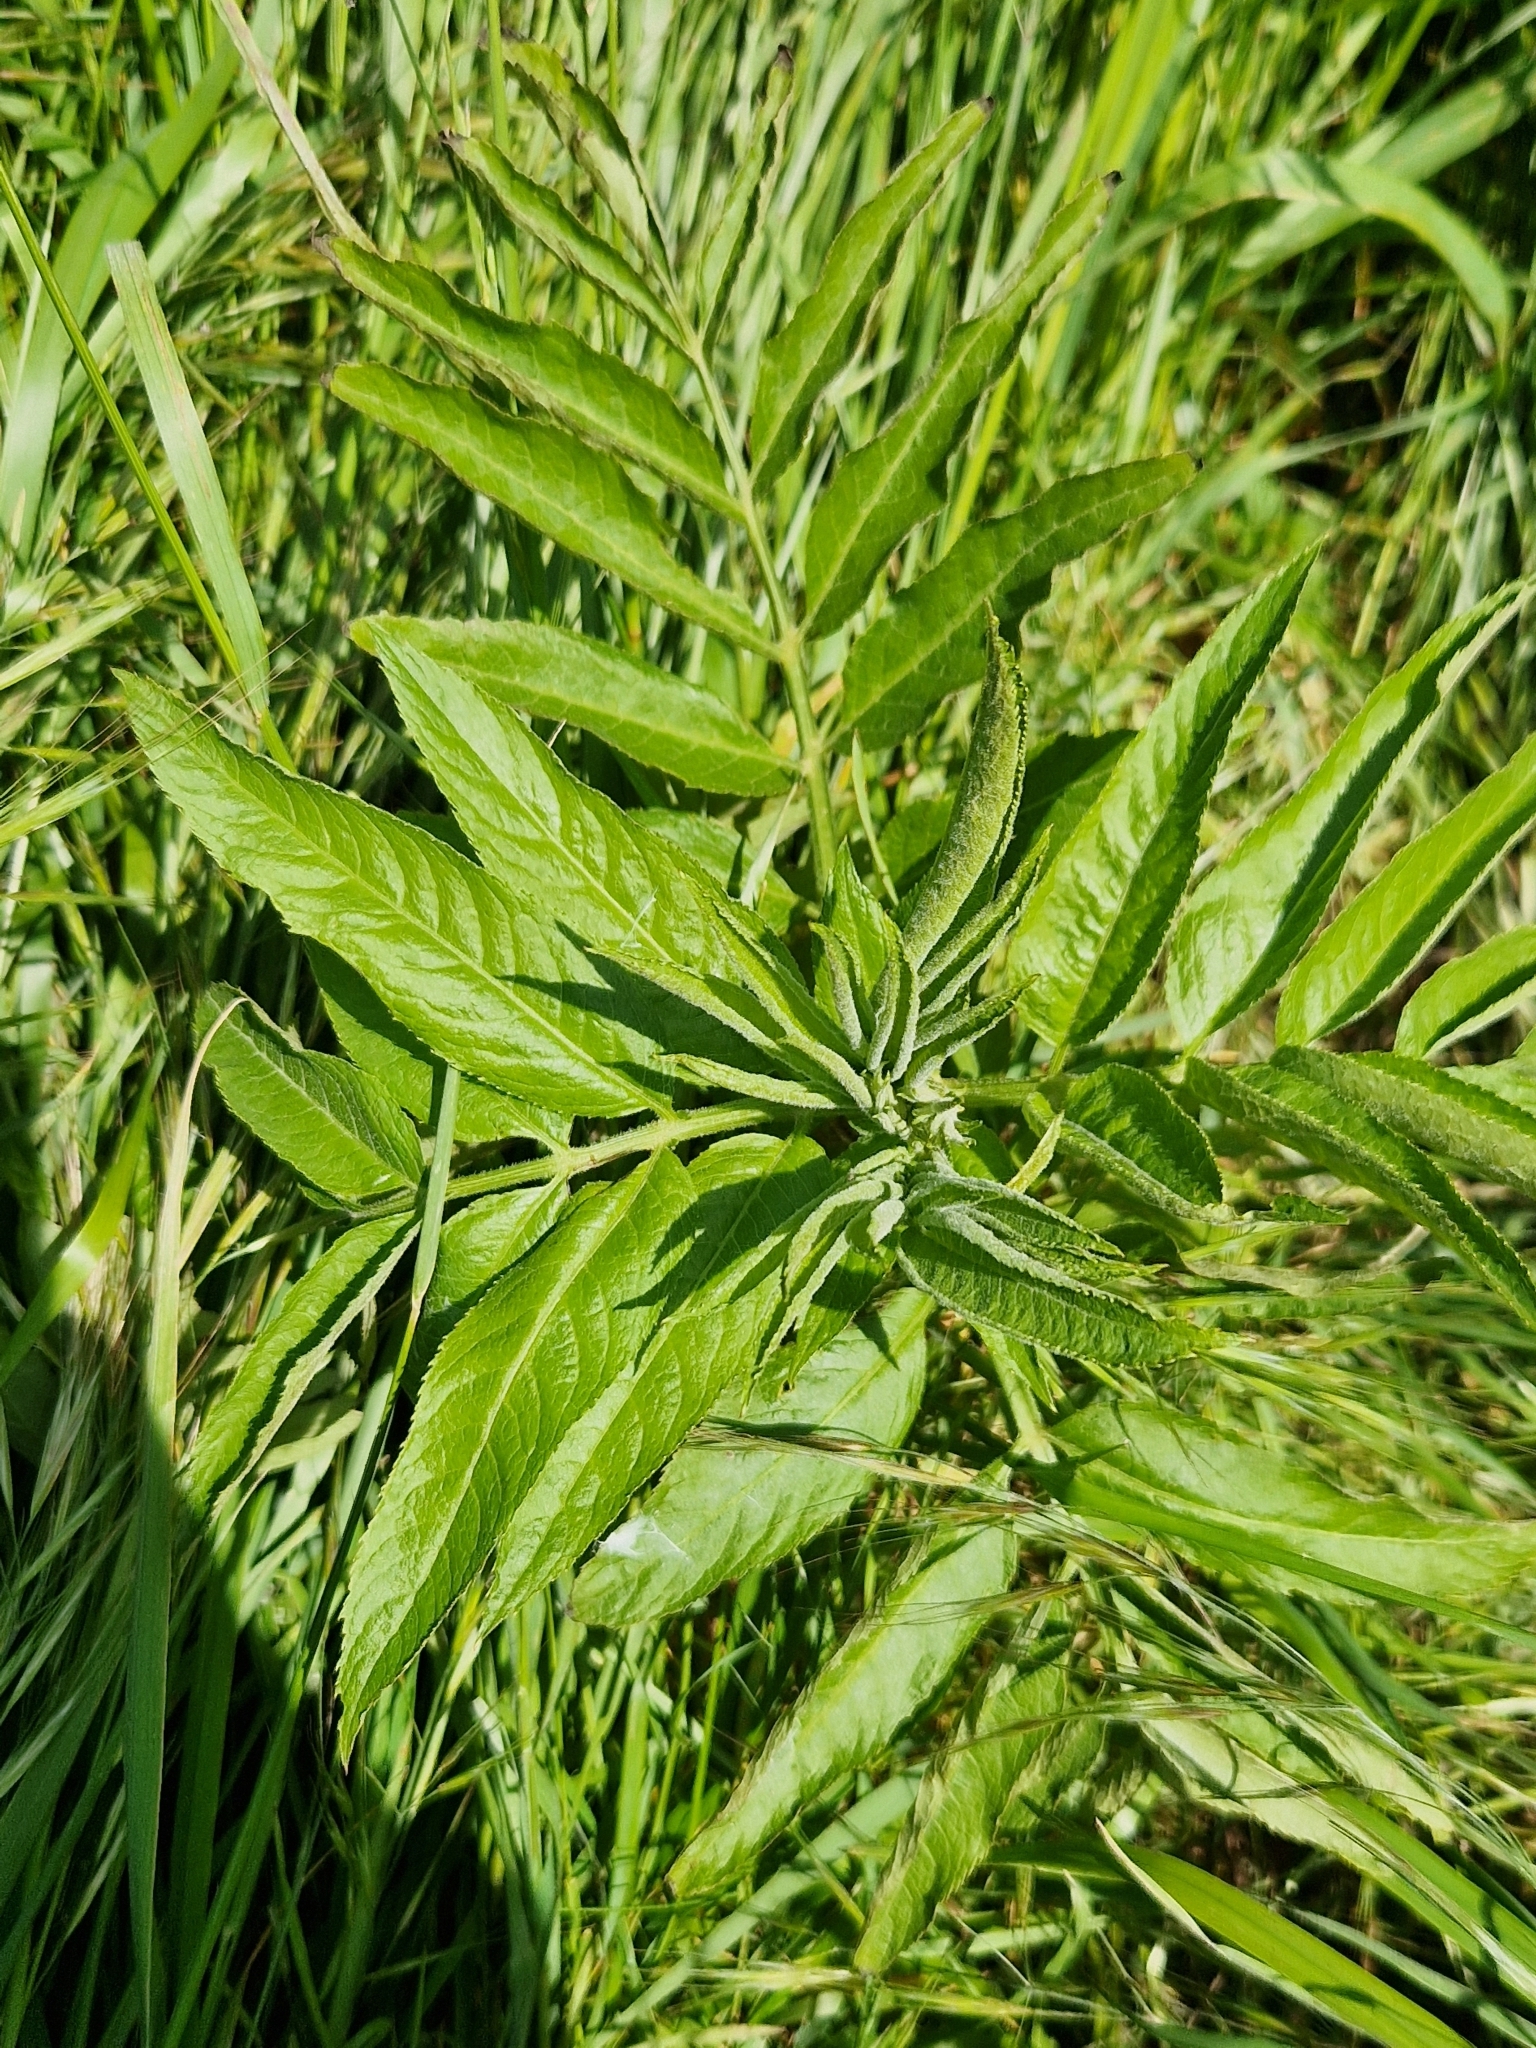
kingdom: Plantae
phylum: Tracheophyta
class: Magnoliopsida
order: Dipsacales
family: Viburnaceae
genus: Sambucus
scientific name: Sambucus ebulus
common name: Dwarf elder
